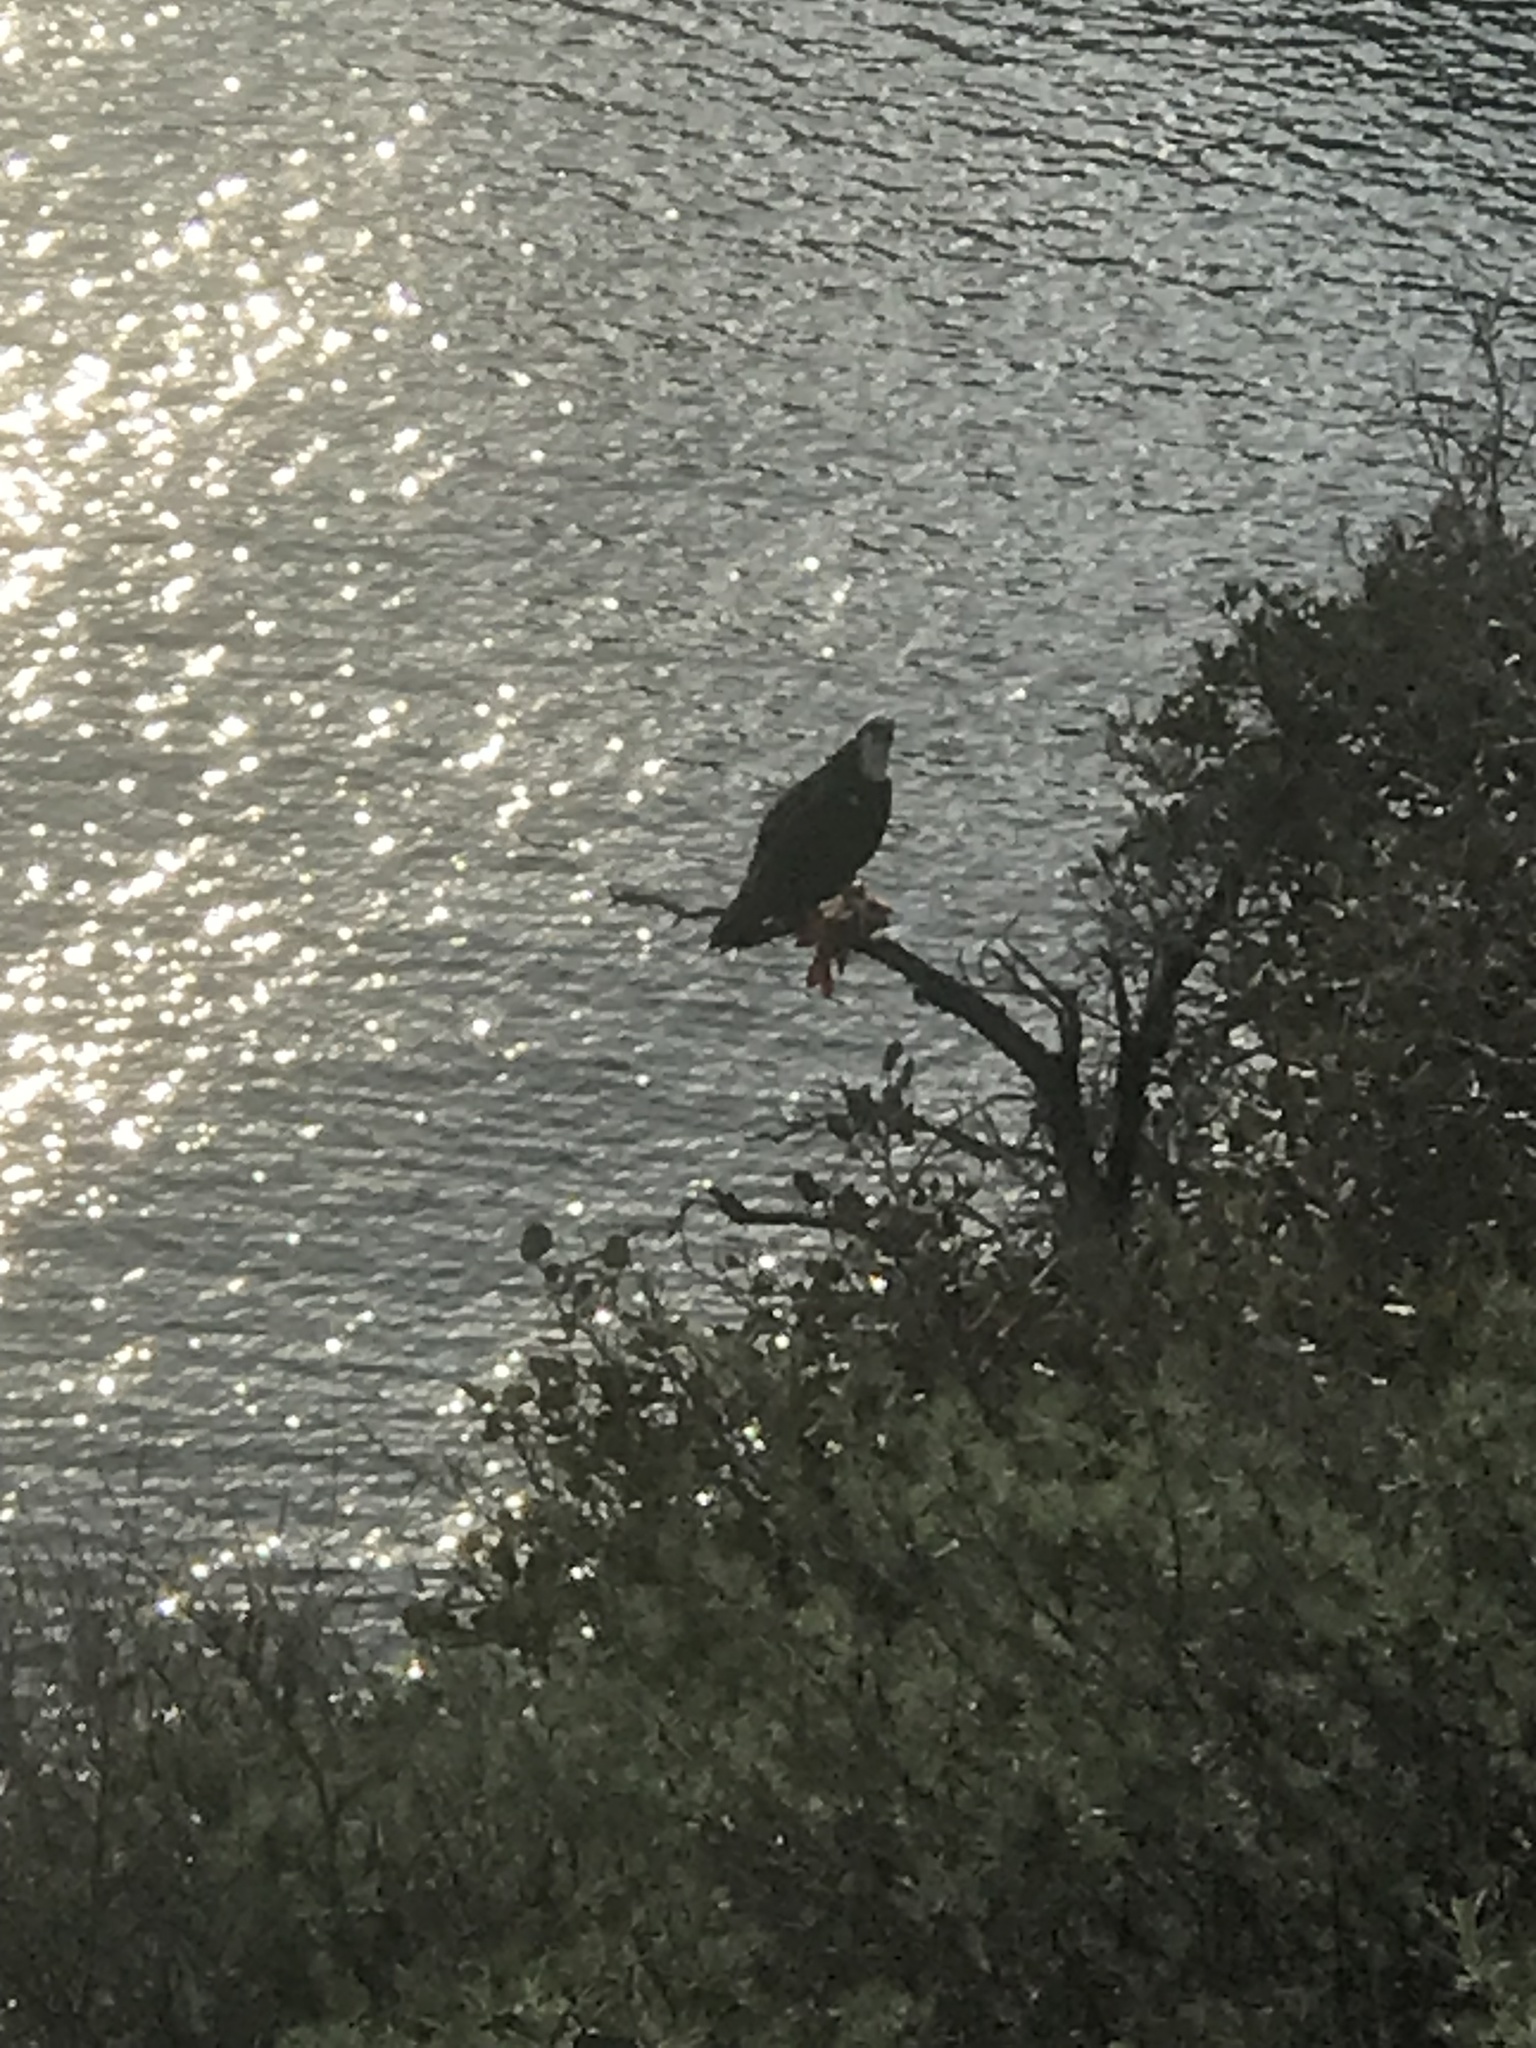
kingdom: Animalia
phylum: Chordata
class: Aves
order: Accipitriformes
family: Pandionidae
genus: Pandion
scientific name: Pandion haliaetus
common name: Osprey
